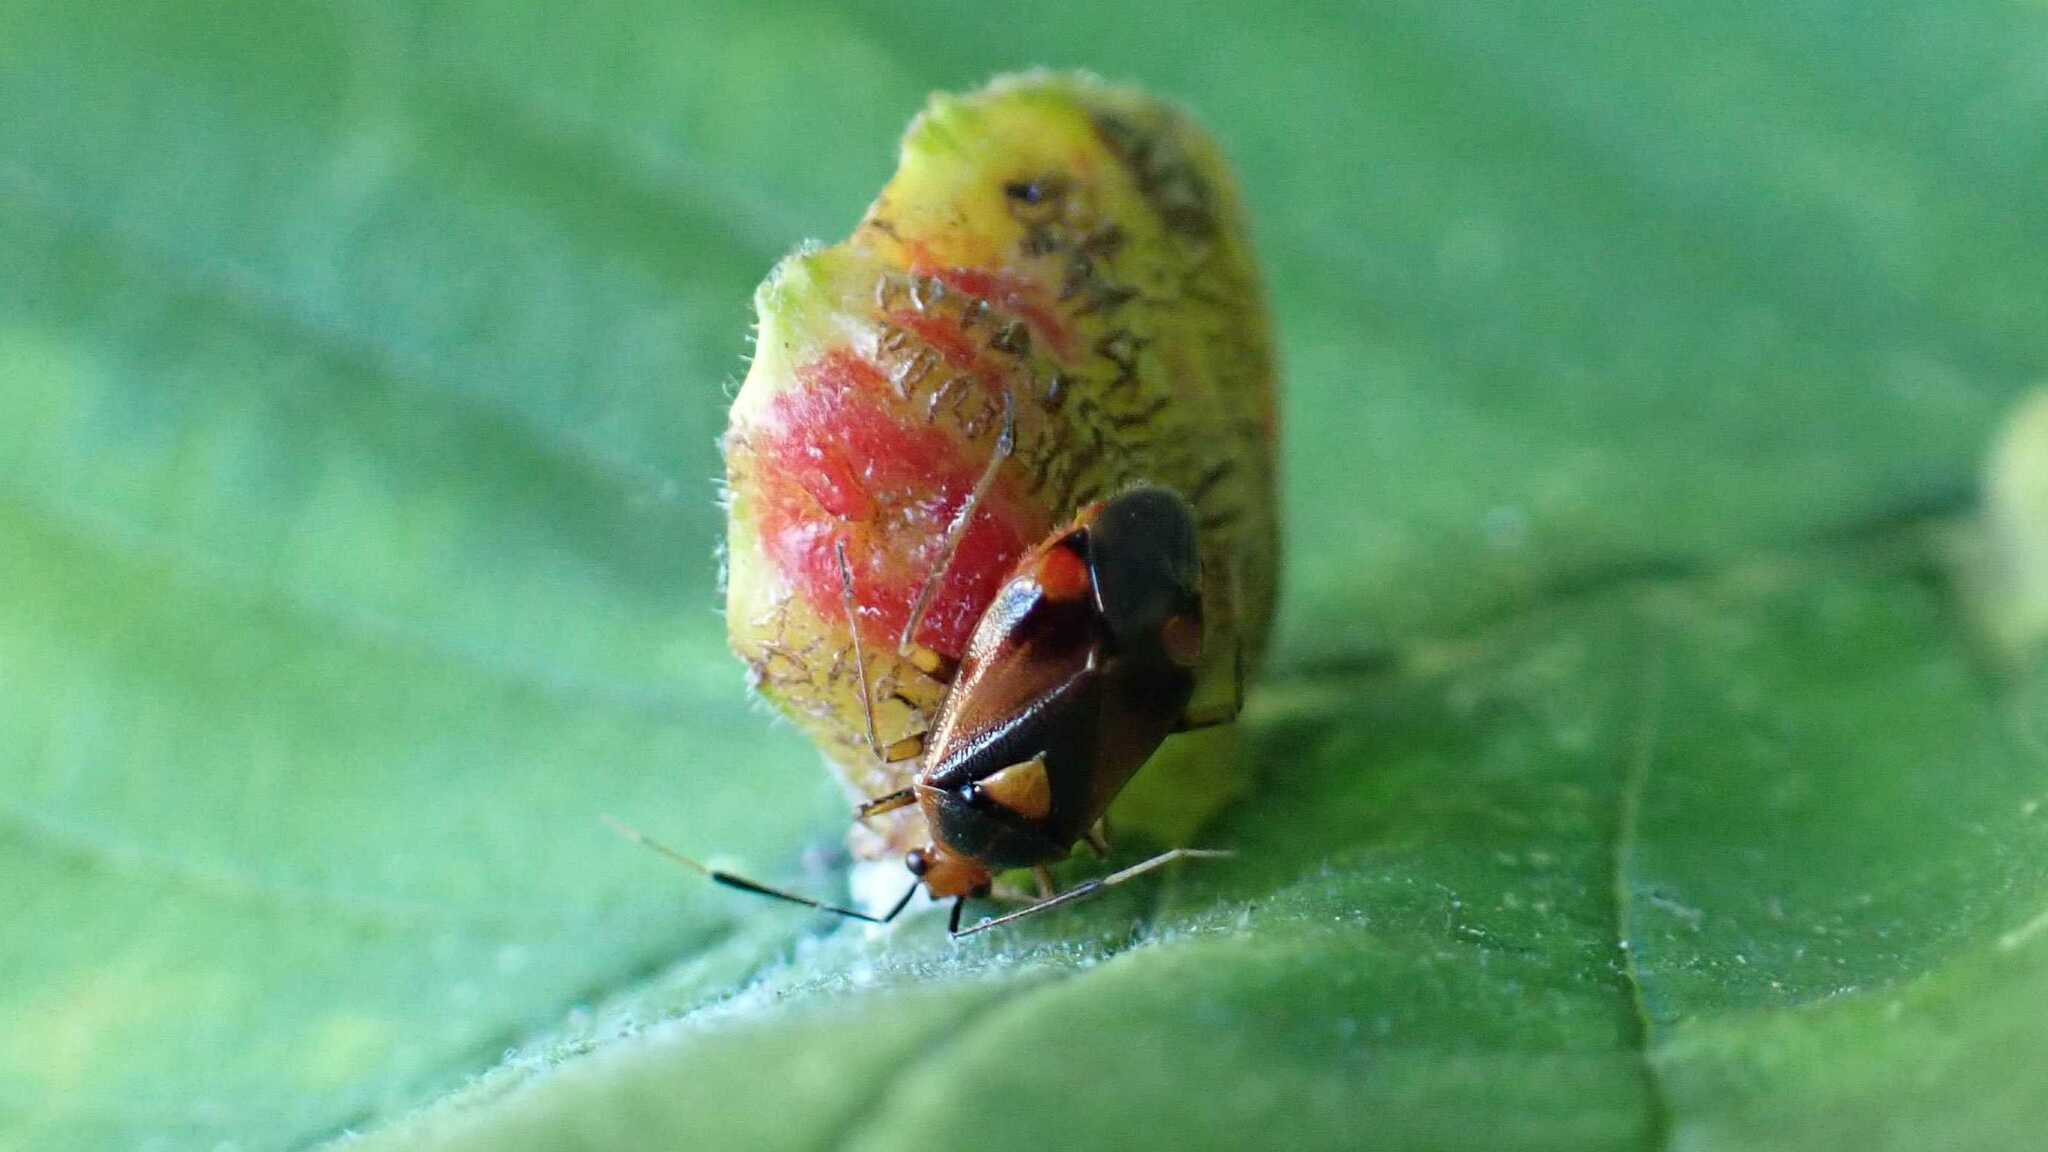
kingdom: Animalia
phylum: Arthropoda
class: Insecta
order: Hemiptera
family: Miridae
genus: Deraeocoris
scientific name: Deraeocoris ruber
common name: Plant bug
